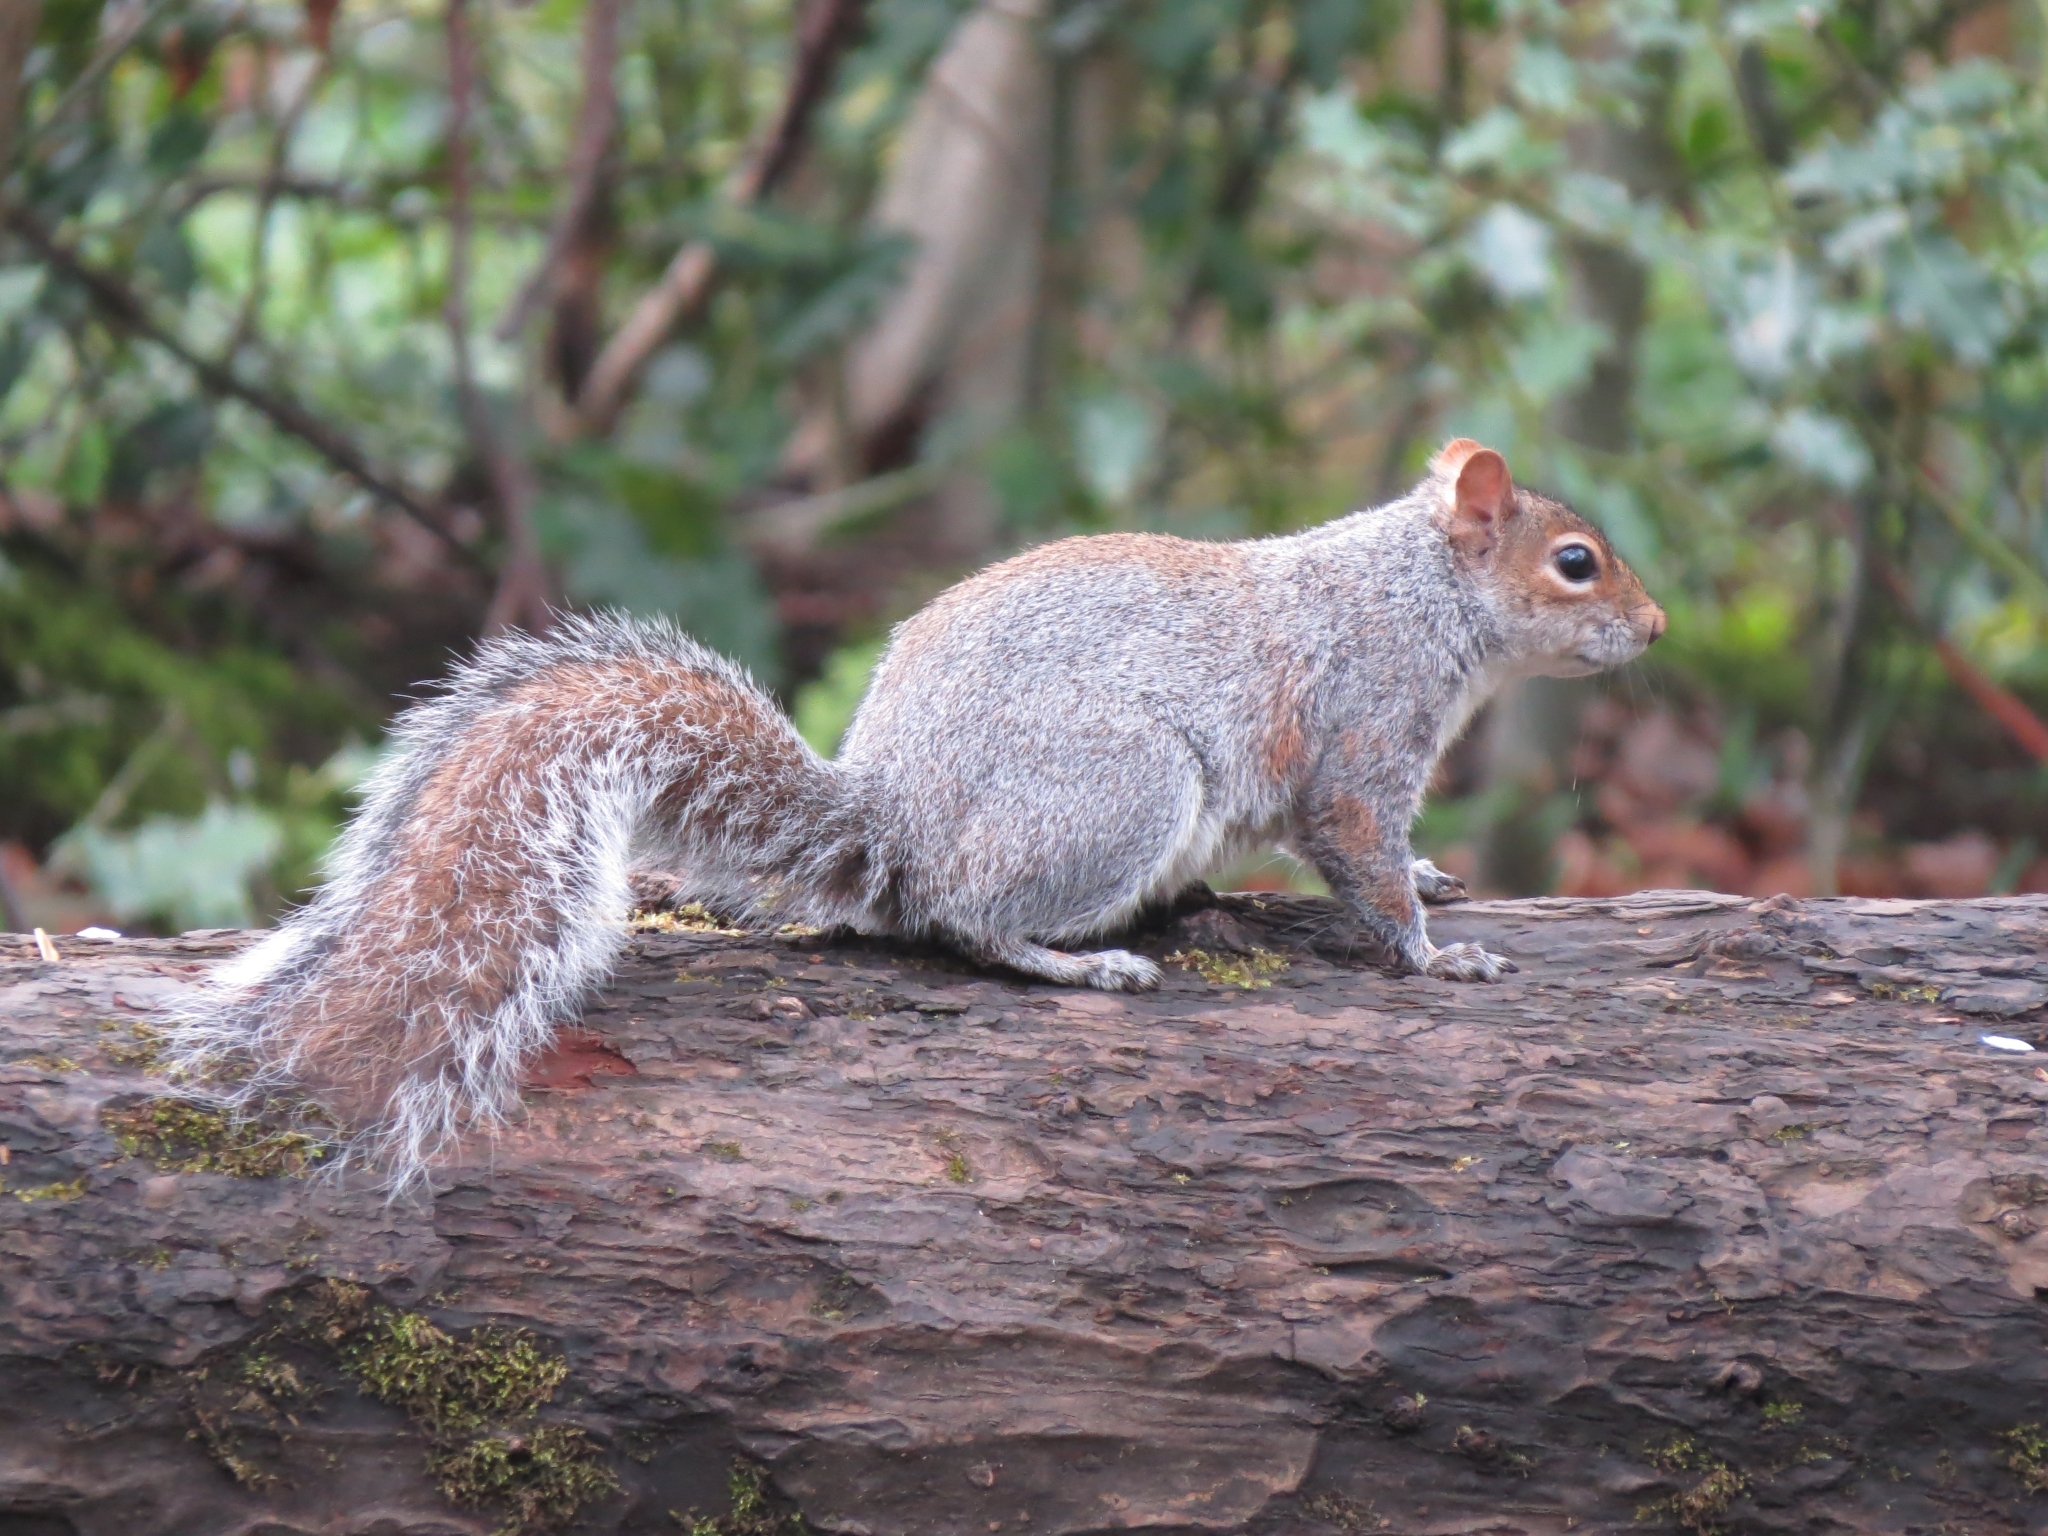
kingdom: Animalia
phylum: Chordata
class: Mammalia
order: Rodentia
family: Sciuridae
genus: Sciurus
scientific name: Sciurus carolinensis
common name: Eastern gray squirrel
